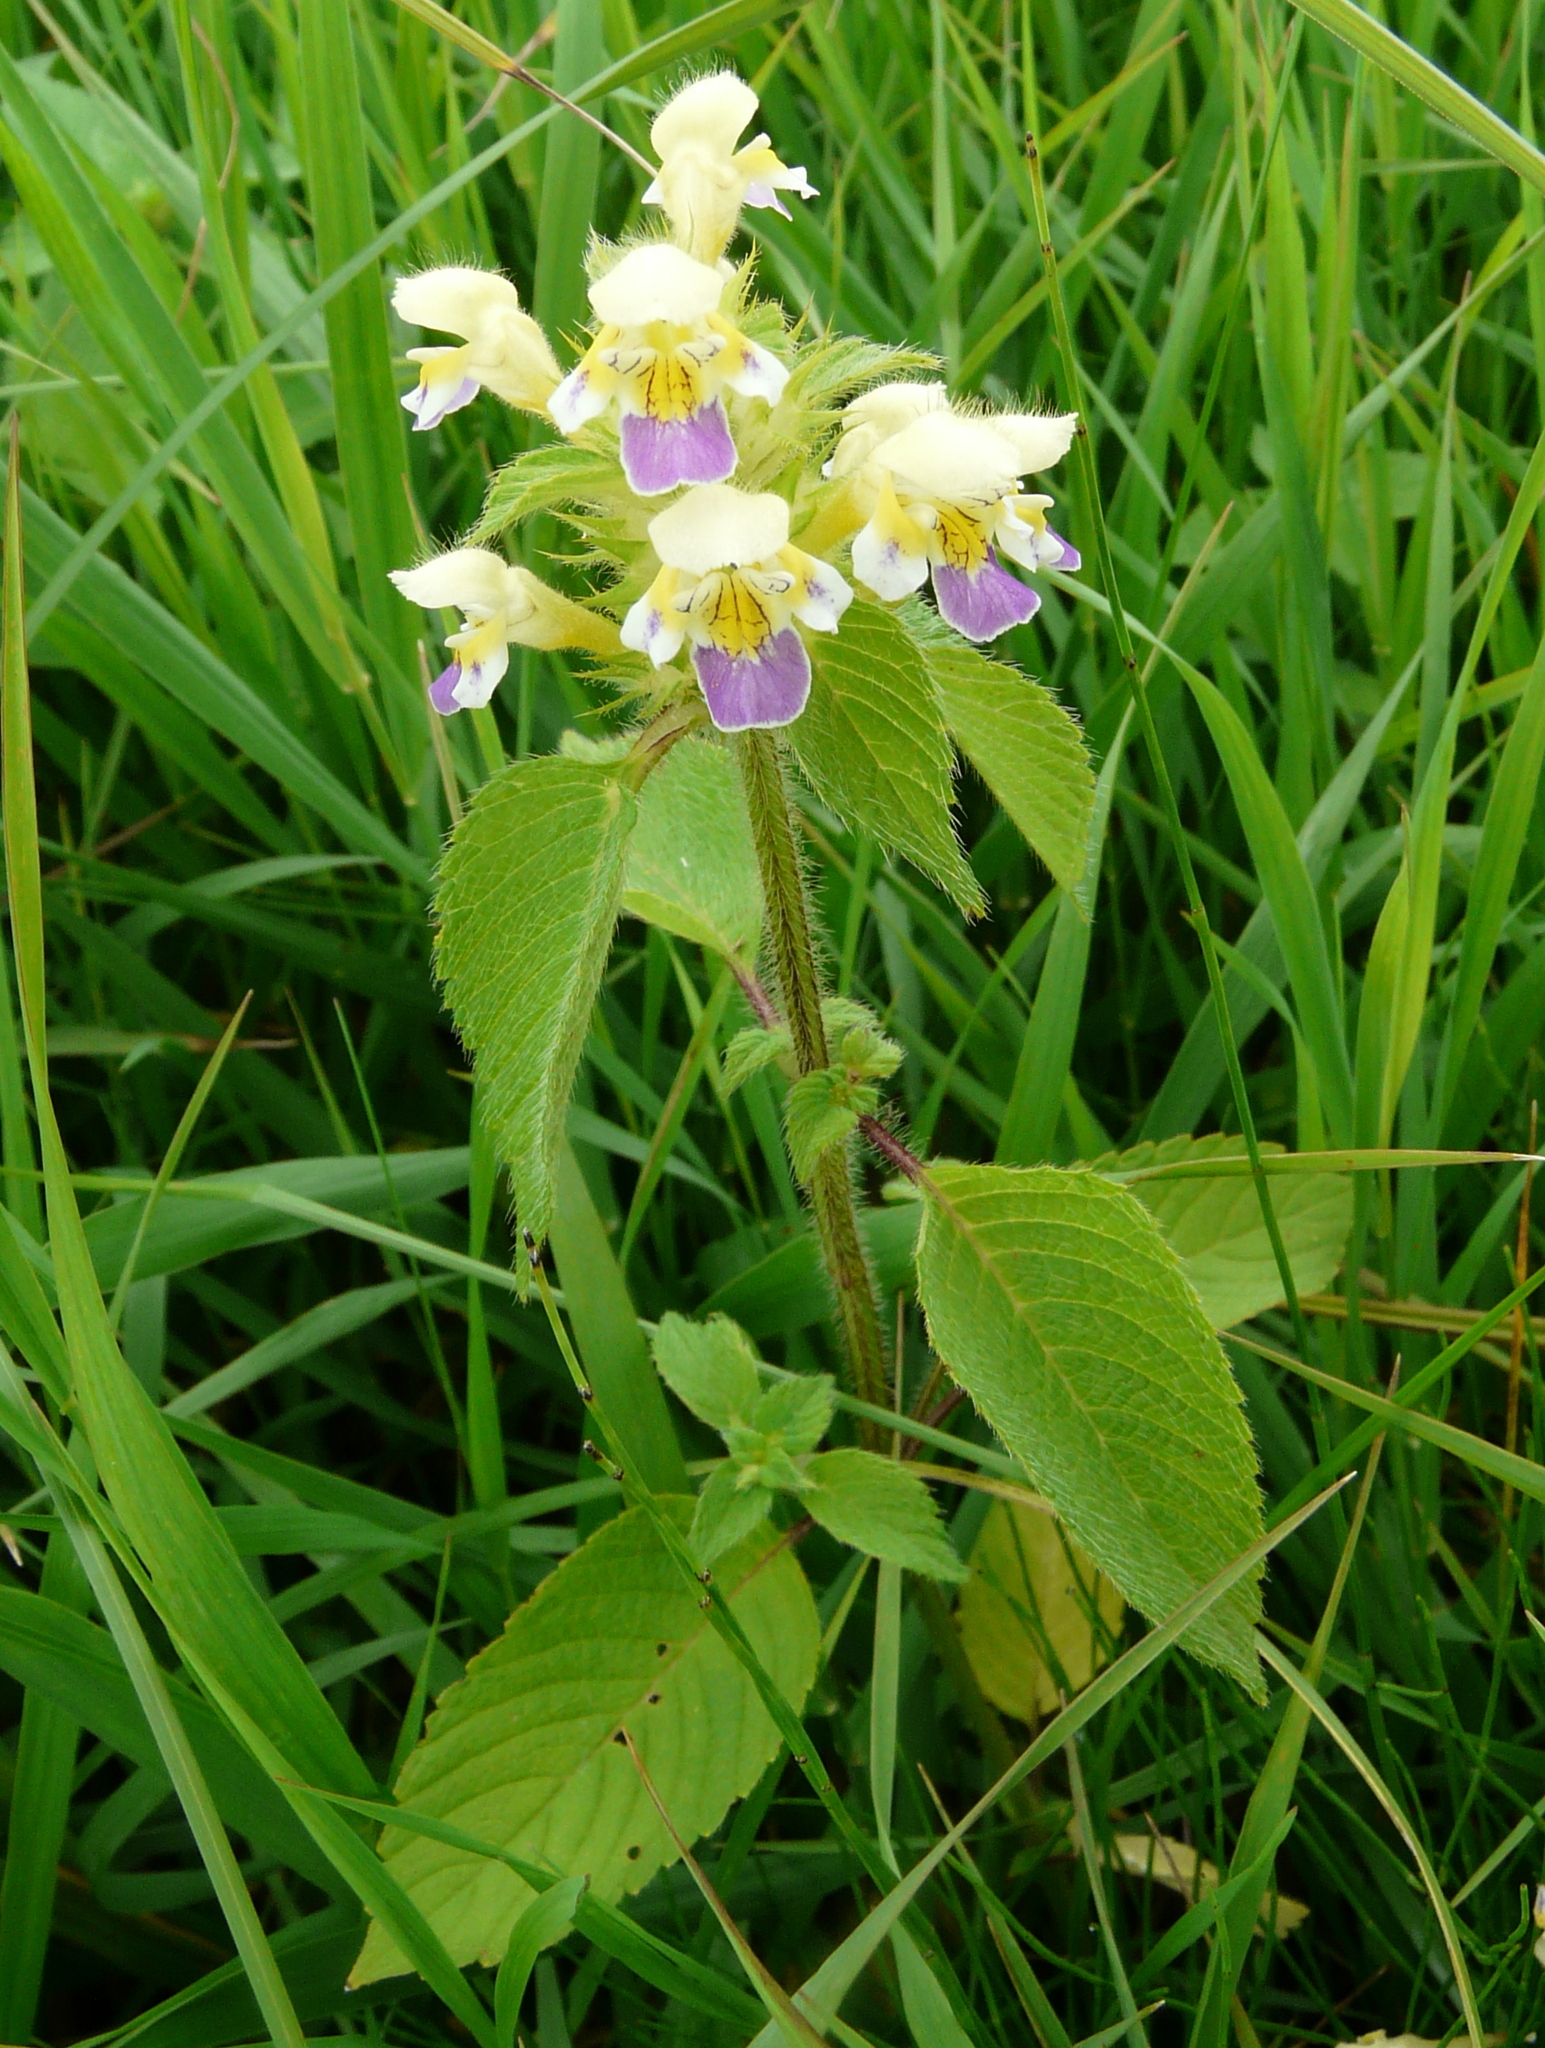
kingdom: Plantae
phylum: Tracheophyta
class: Magnoliopsida
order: Lamiales
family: Lamiaceae
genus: Galeopsis
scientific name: Galeopsis speciosa
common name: Large-flowered hemp-nettle
